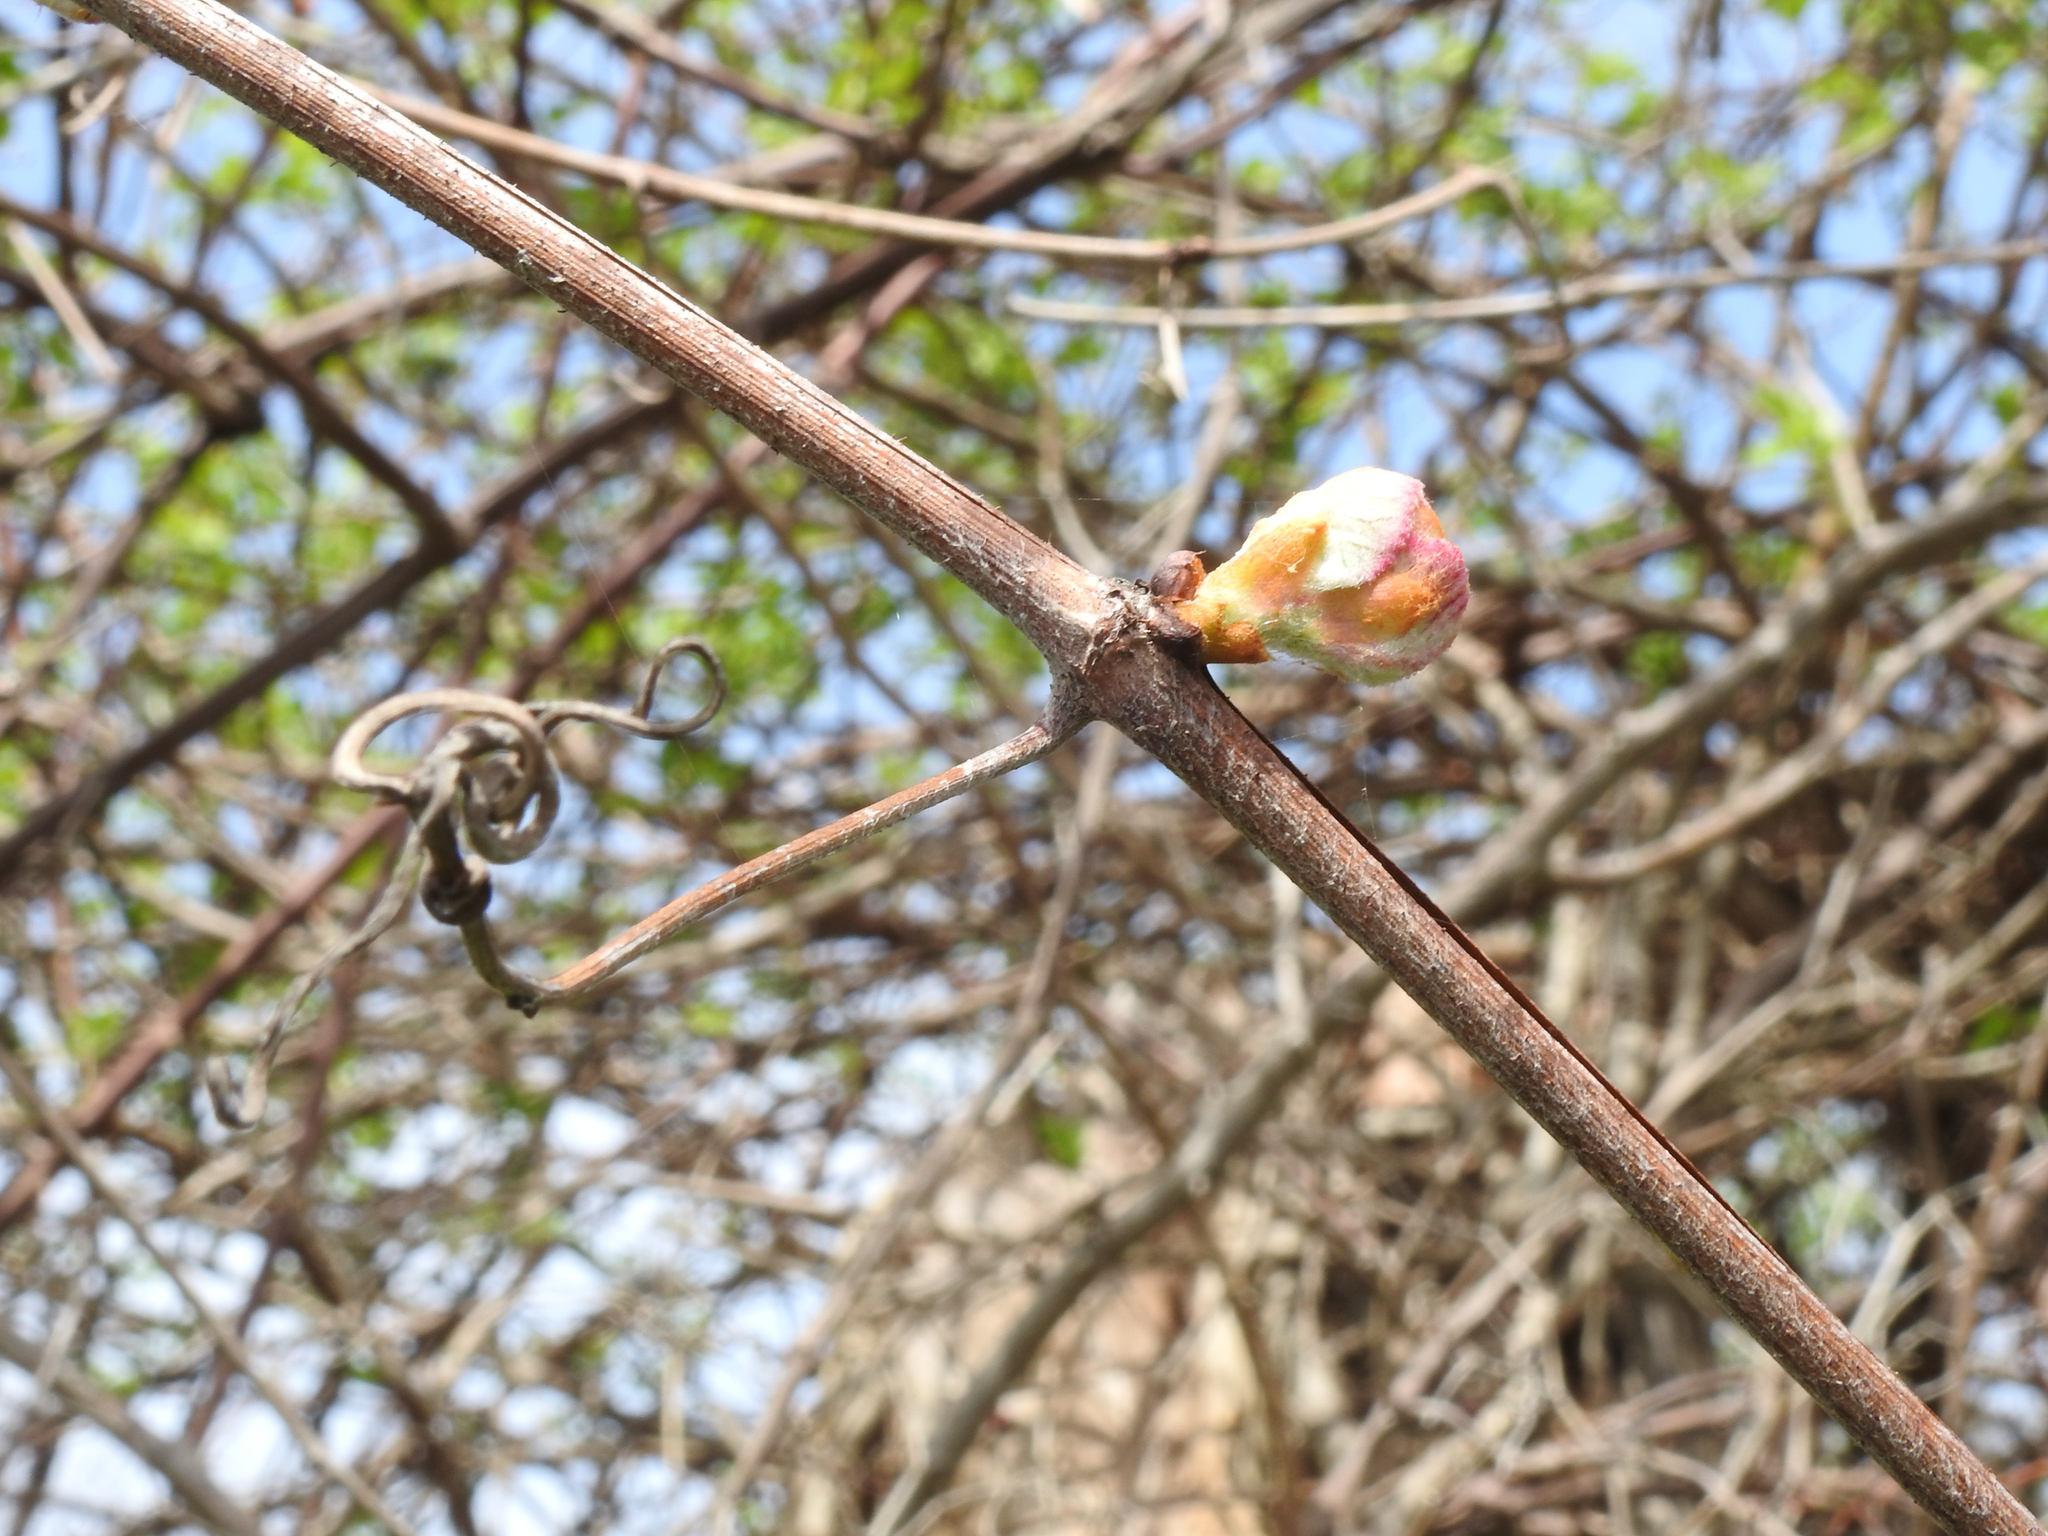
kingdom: Plantae
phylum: Tracheophyta
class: Magnoliopsida
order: Vitales
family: Vitaceae
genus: Vitis
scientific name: Vitis labrusca
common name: Concord grape
